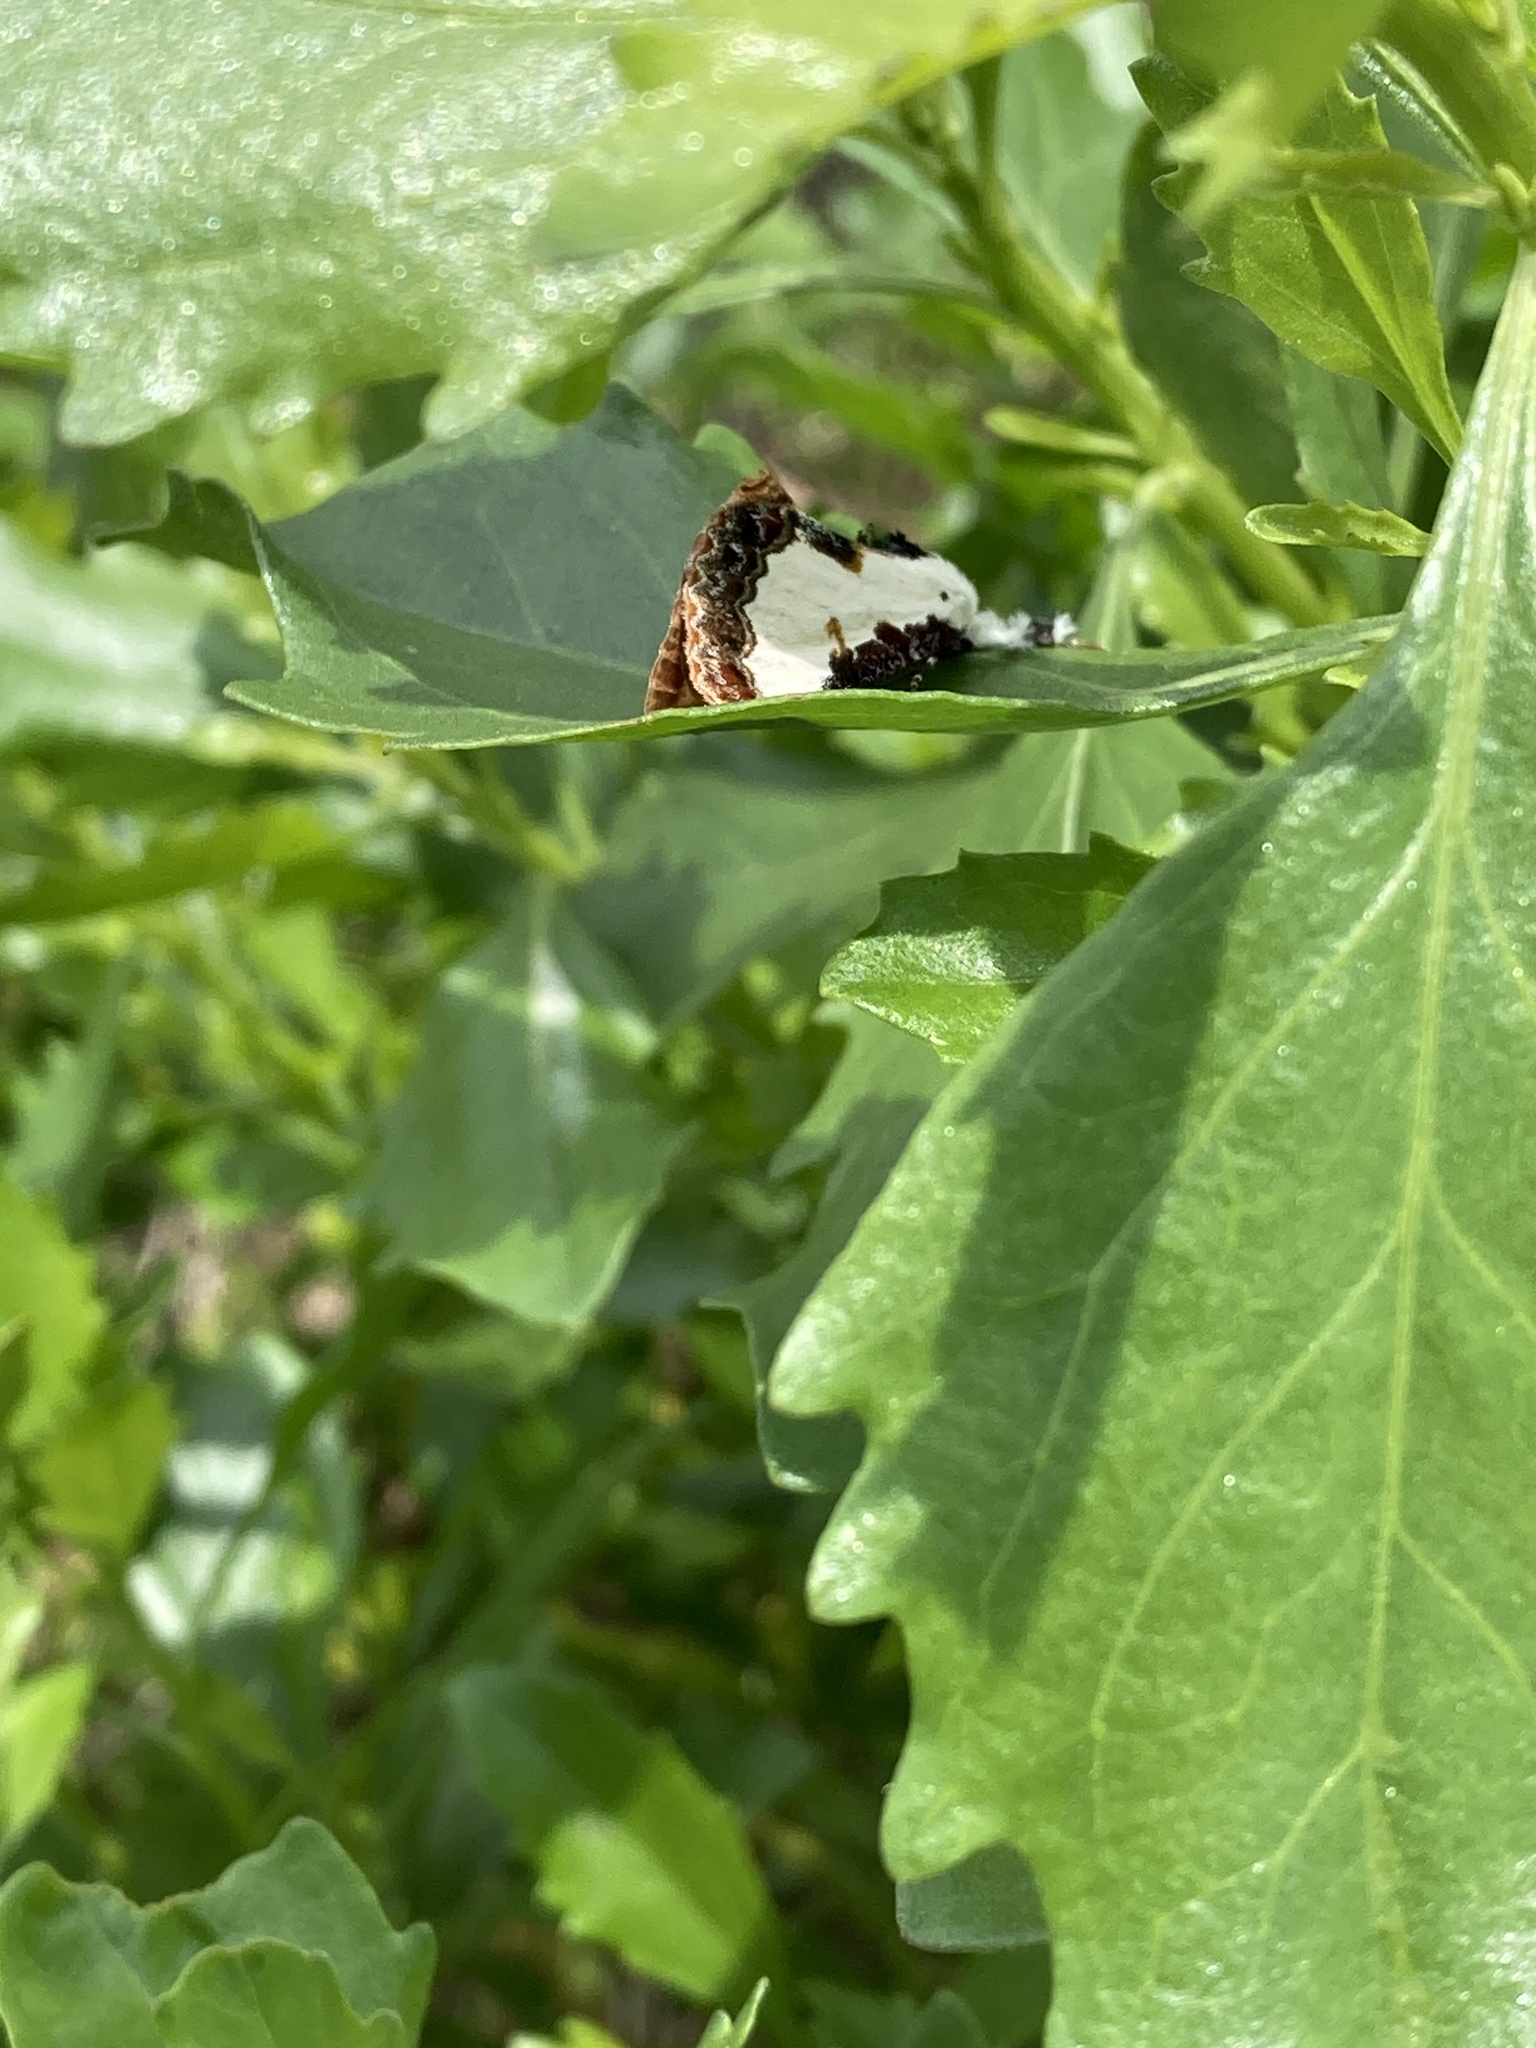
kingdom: Animalia
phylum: Arthropoda
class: Insecta
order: Lepidoptera
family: Noctuidae
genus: Eudryas
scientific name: Eudryas unio
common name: Pearly wood-nymph
